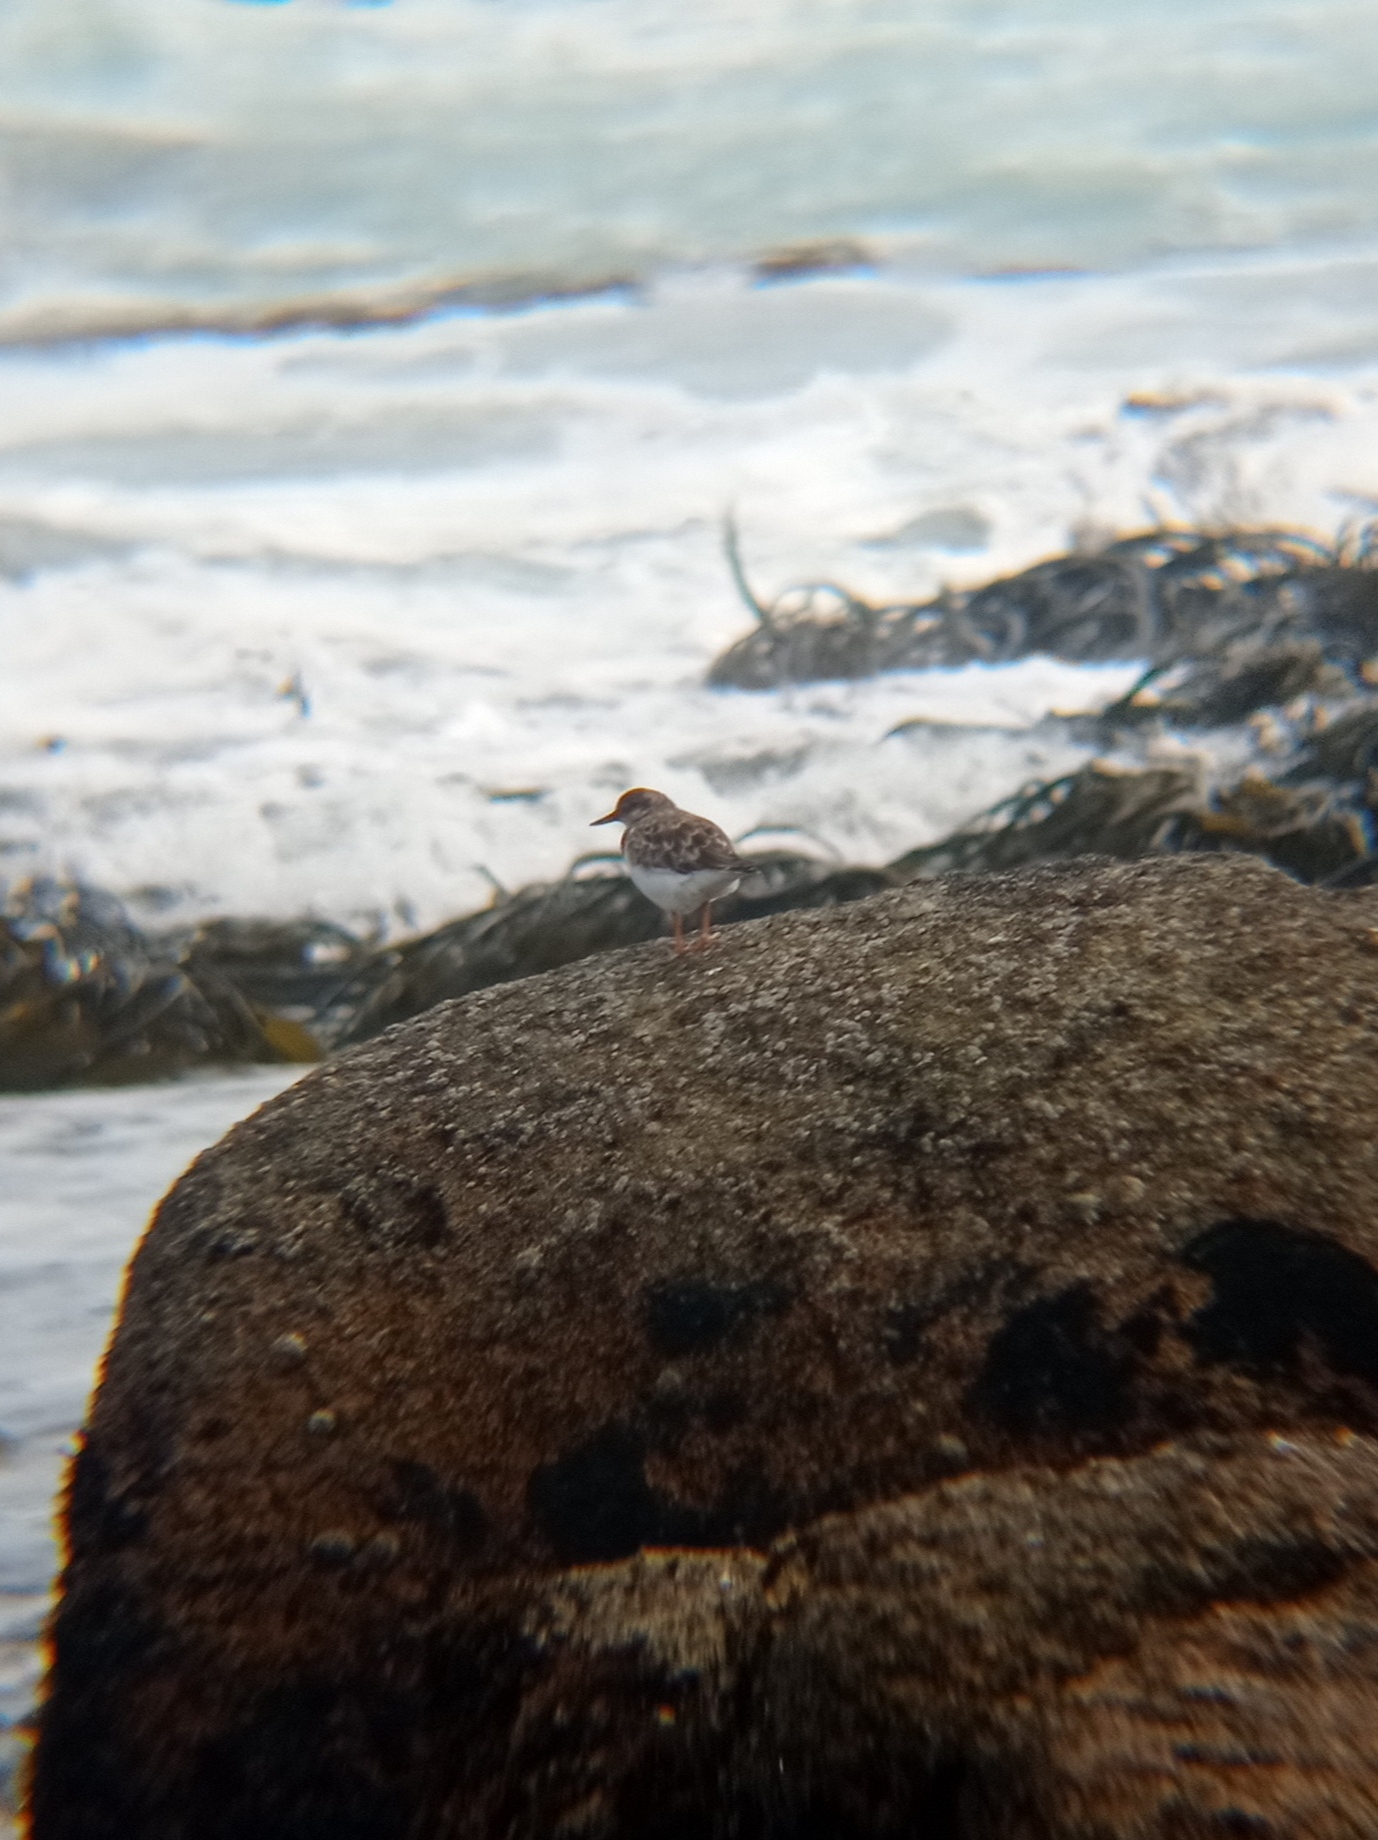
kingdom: Animalia
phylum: Chordata
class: Aves
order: Charadriiformes
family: Scolopacidae
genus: Arenaria
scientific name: Arenaria interpres
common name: Ruddy turnstone
